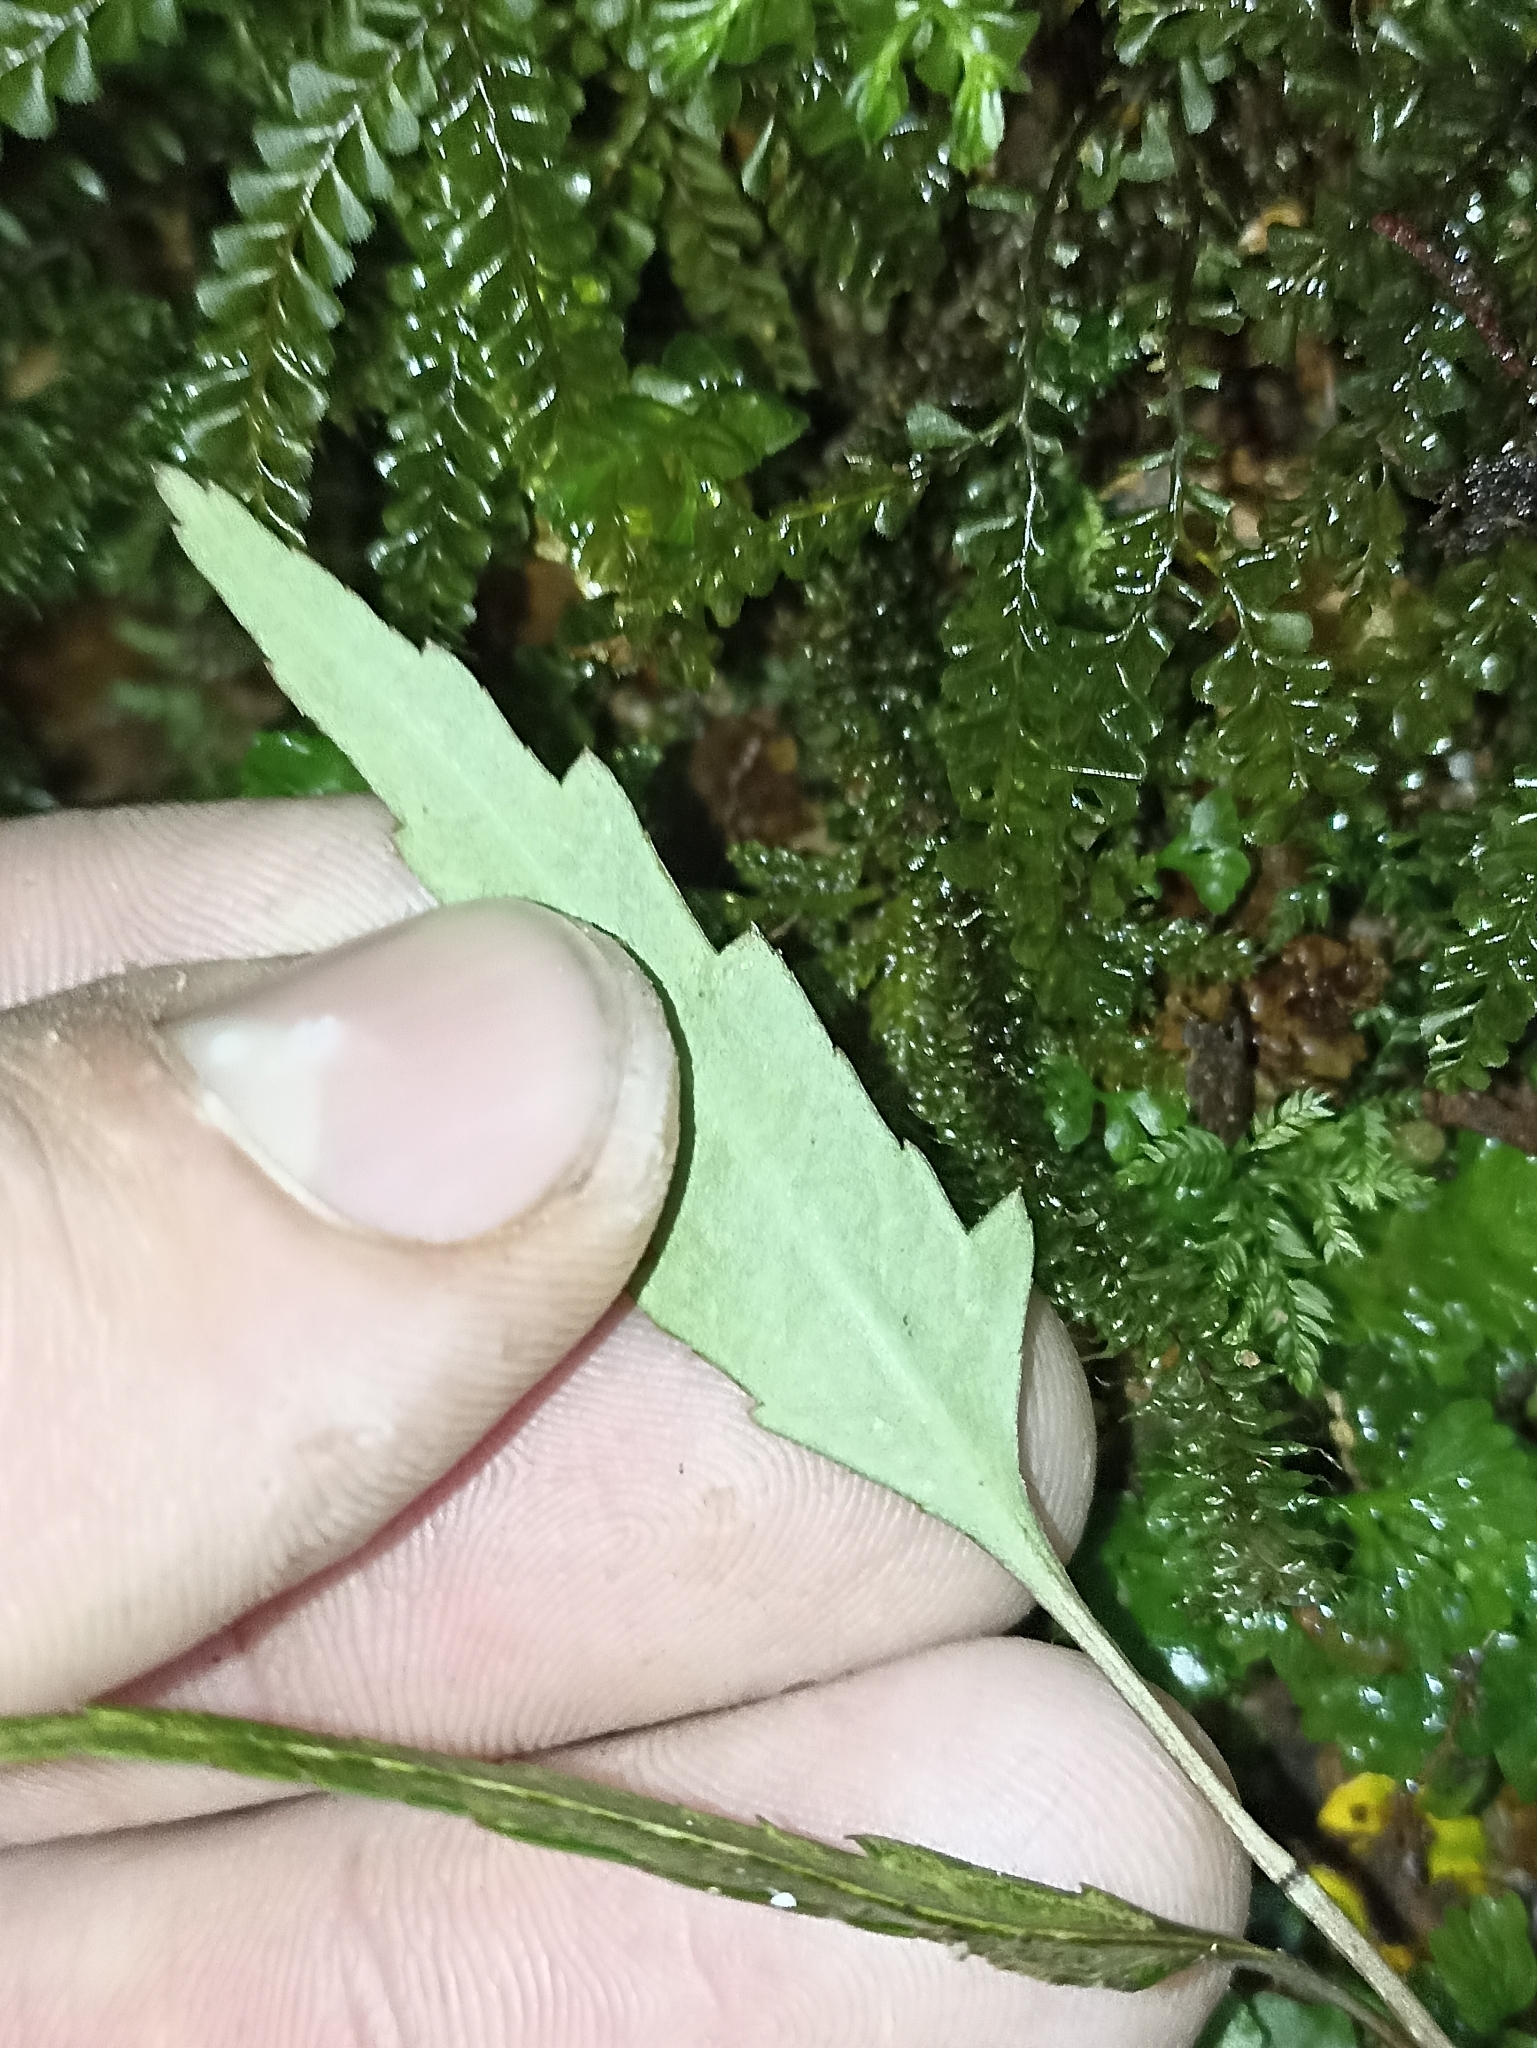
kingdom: Plantae
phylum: Tracheophyta
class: Magnoliopsida
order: Apiales
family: Araliaceae
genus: Pseudopanax
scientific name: Pseudopanax crassifolius
